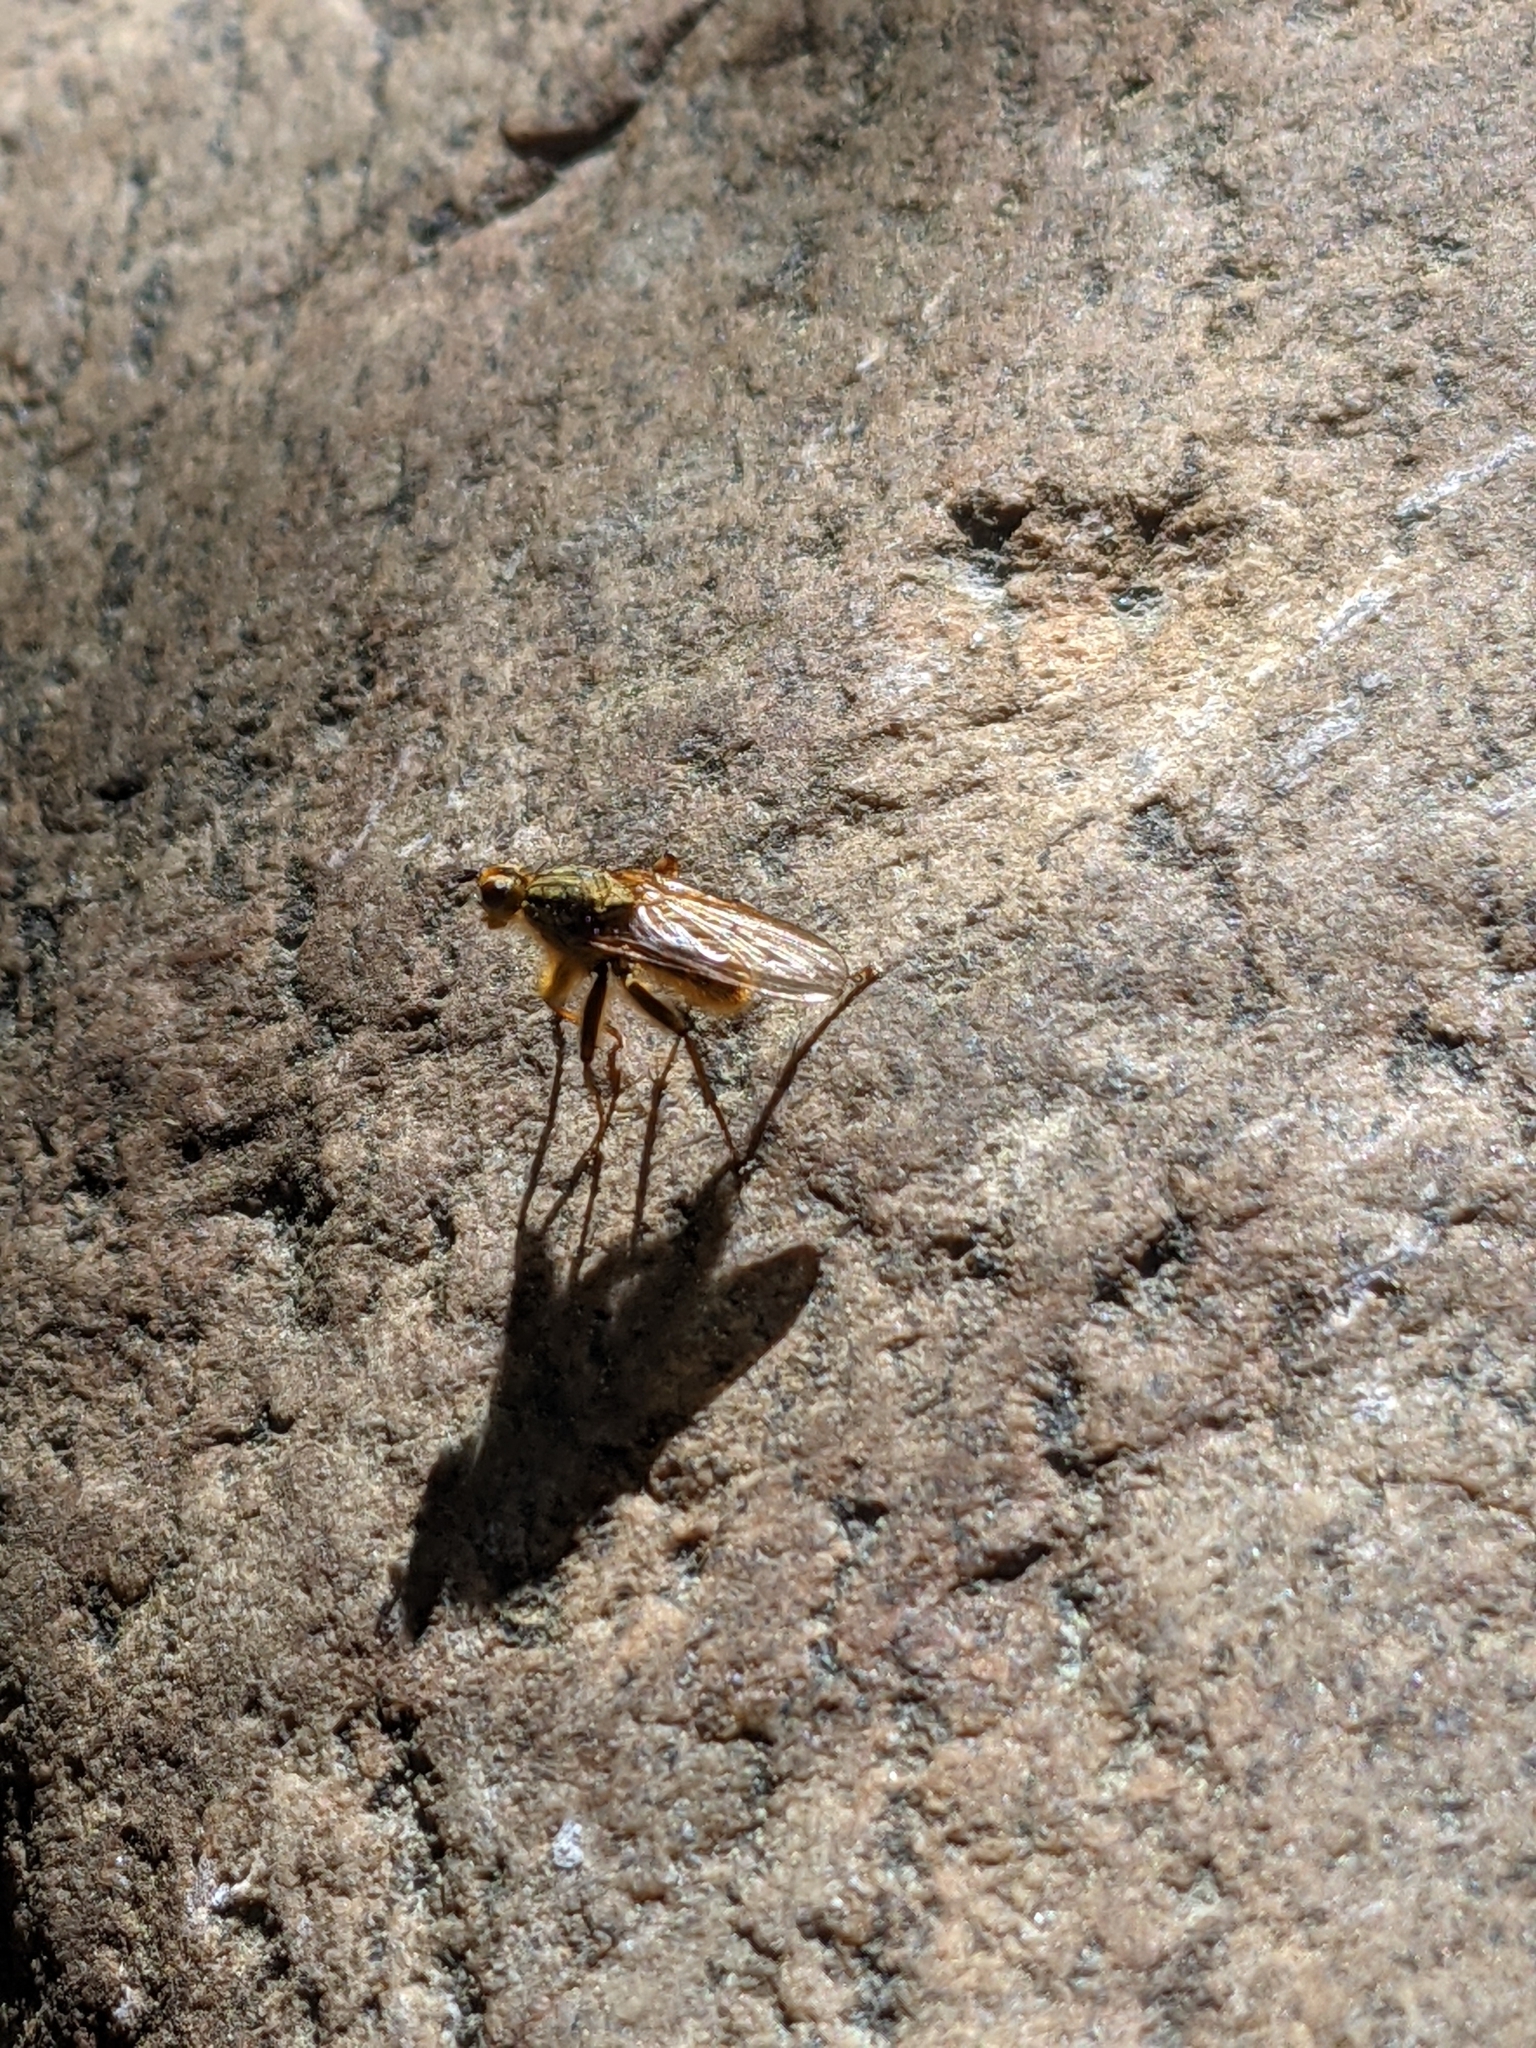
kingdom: Animalia
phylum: Arthropoda
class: Insecta
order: Diptera
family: Scathophagidae
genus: Scathophaga
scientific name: Scathophaga stercoraria
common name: Yellow dung fly
